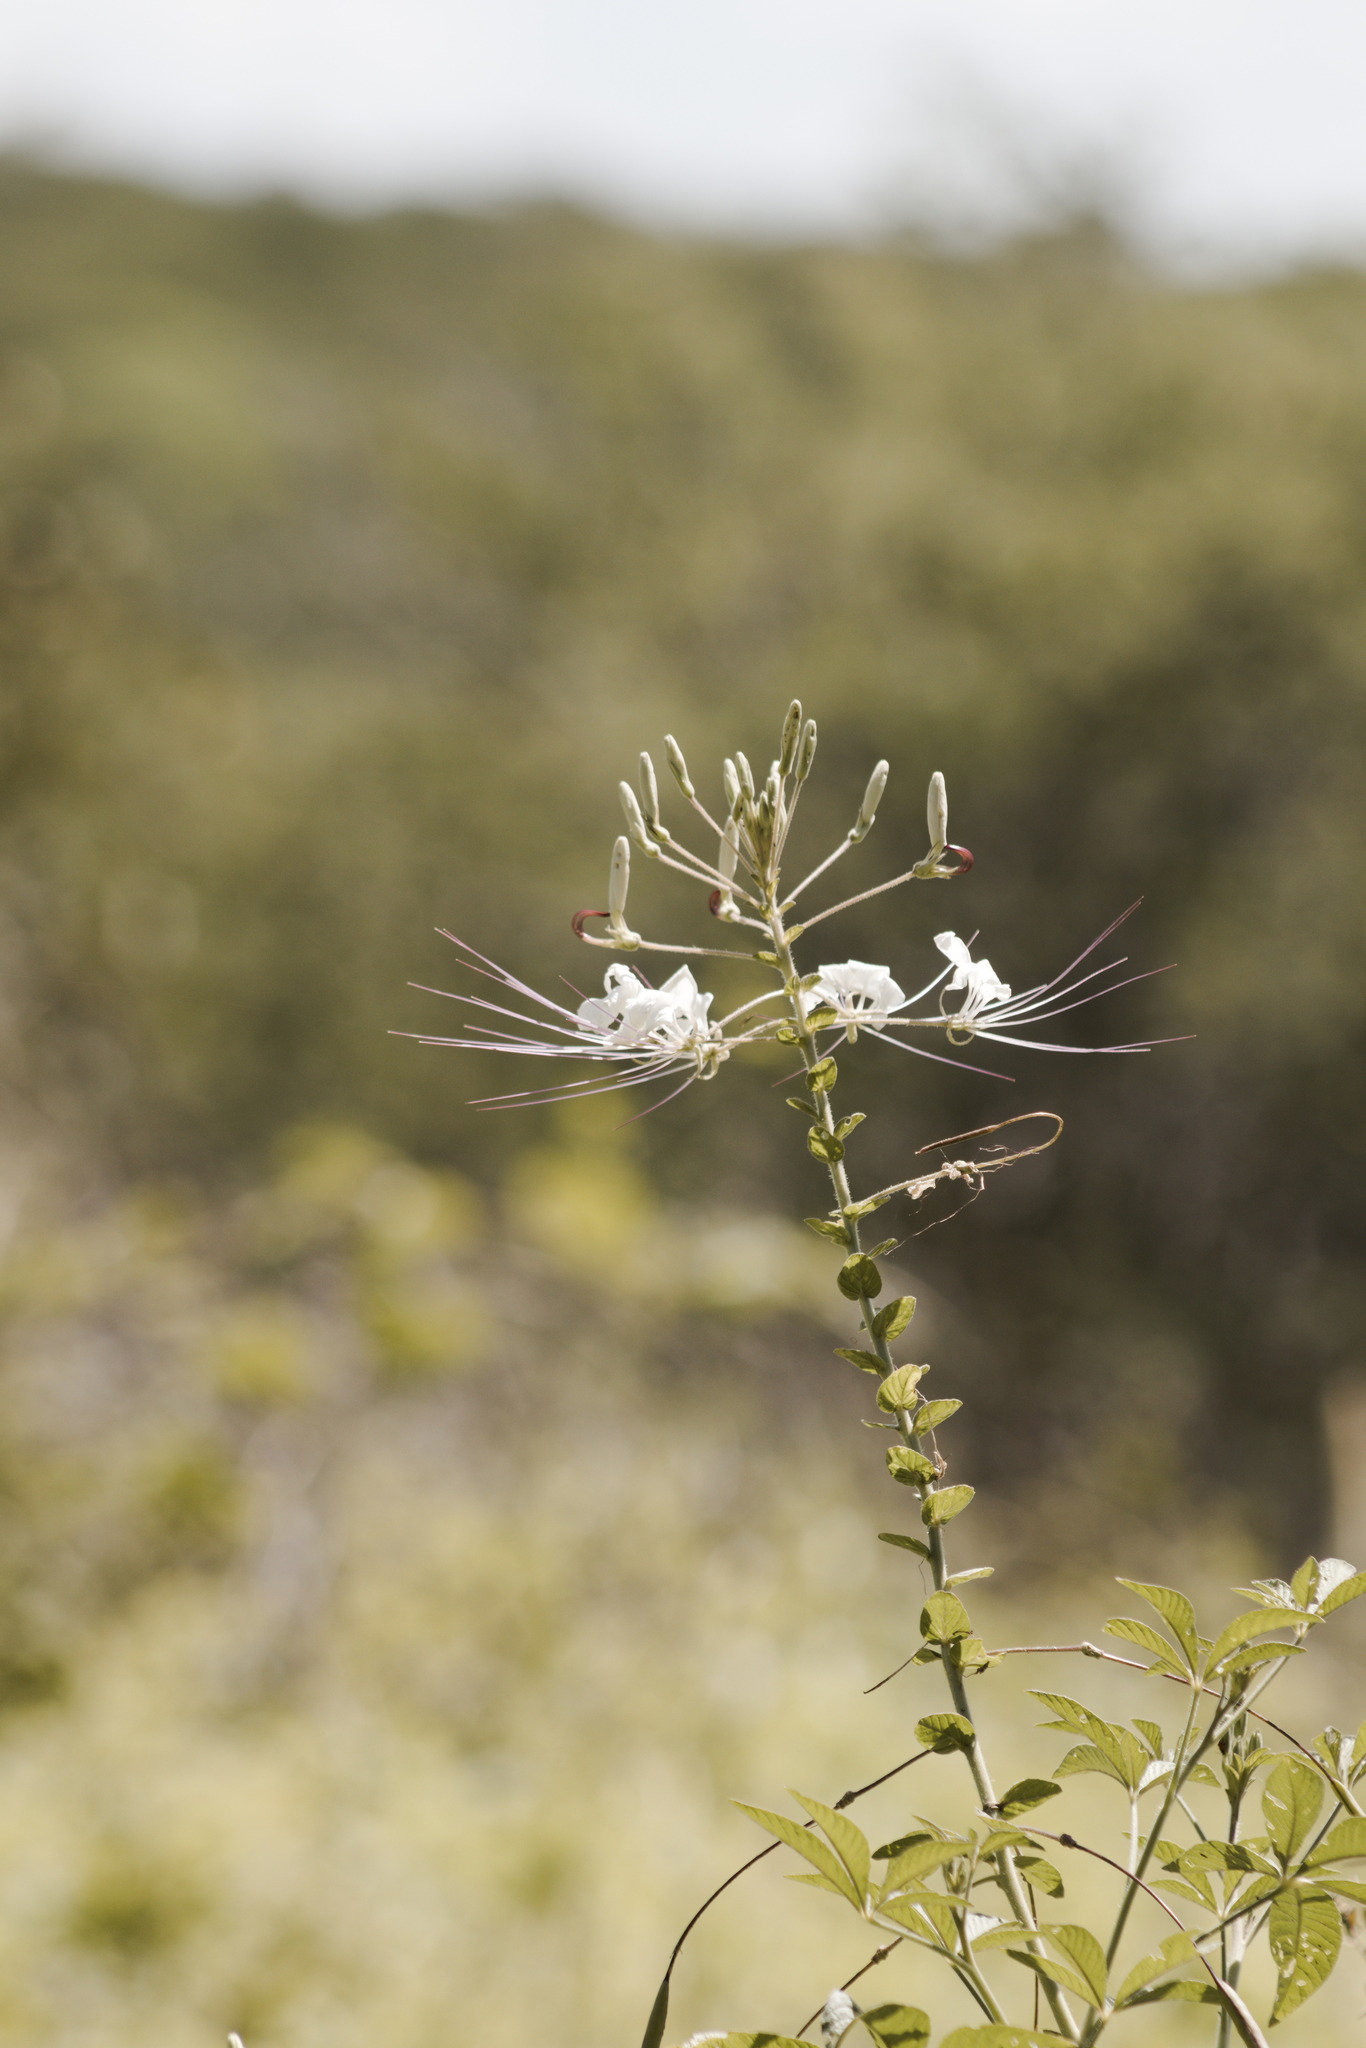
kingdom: Plantae
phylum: Tracheophyta
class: Magnoliopsida
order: Brassicales
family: Cleomaceae
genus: Tarenaya
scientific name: Tarenaya longicarpa
